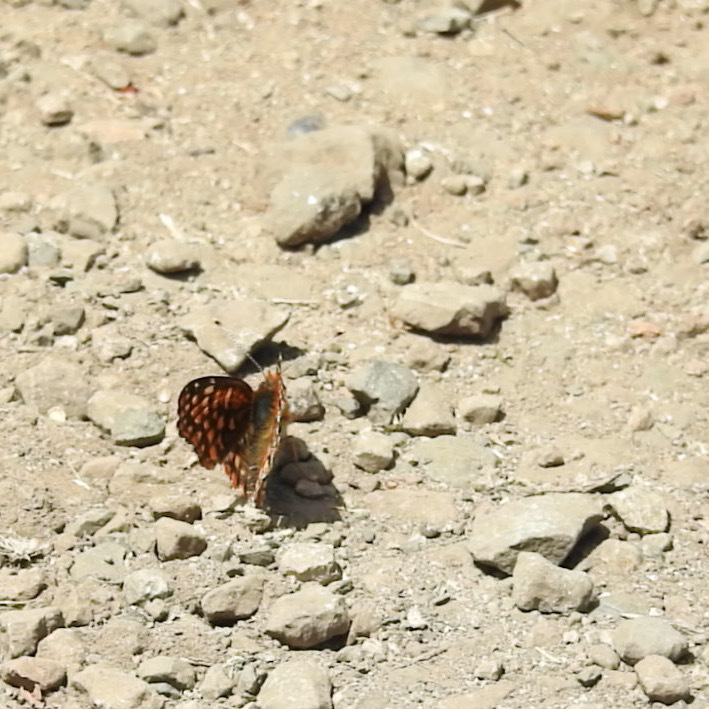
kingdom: Animalia
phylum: Arthropoda
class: Insecta
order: Lepidoptera
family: Nymphalidae
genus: Chlosyne
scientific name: Chlosyne palla
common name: Northern checkerspot
